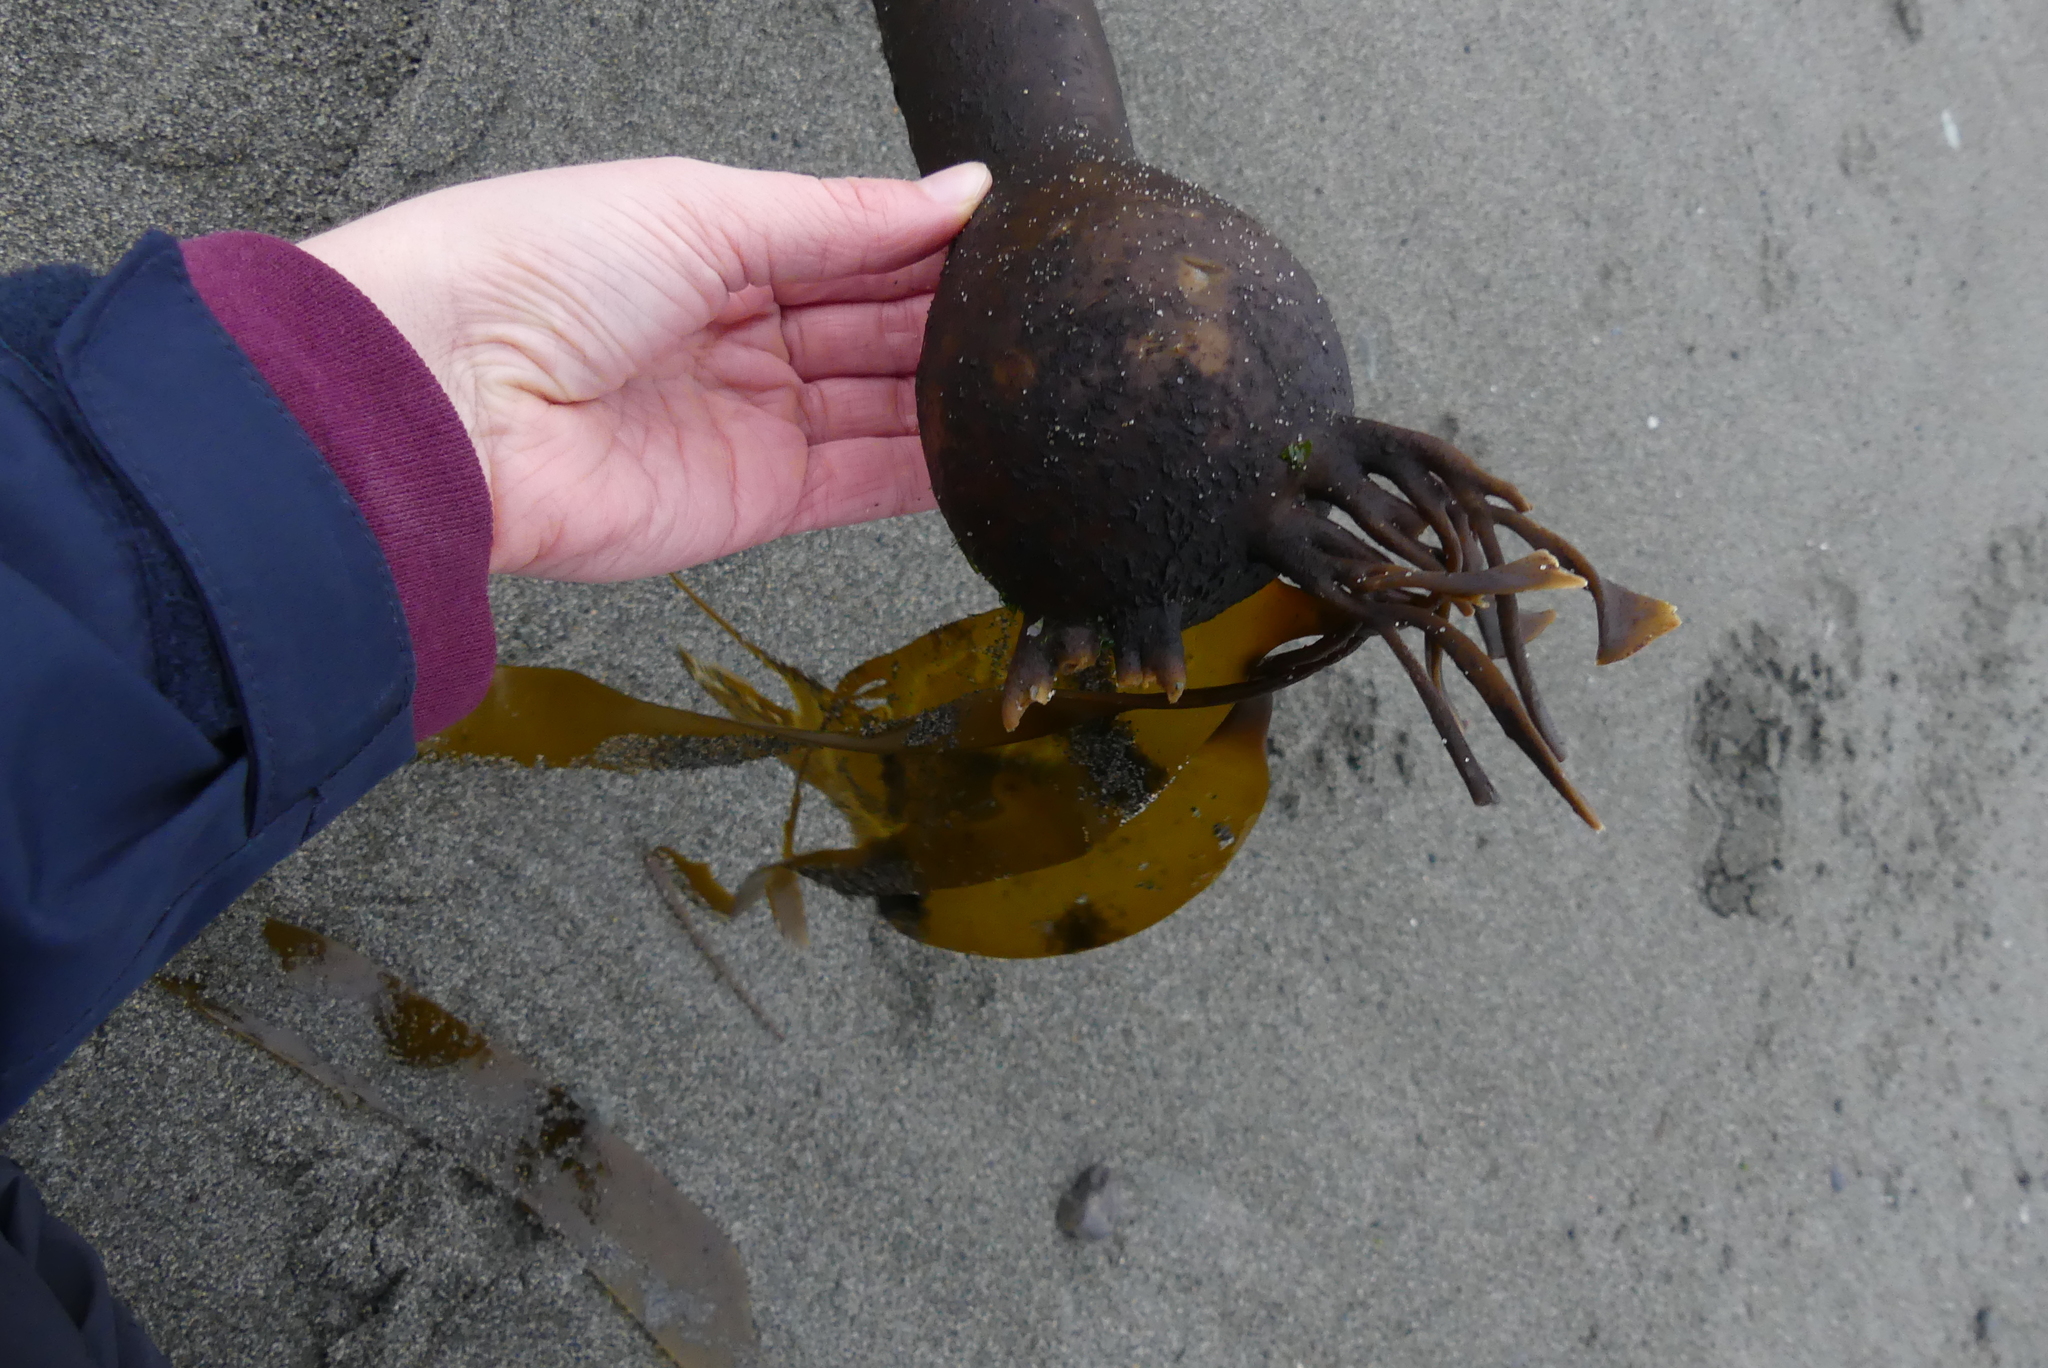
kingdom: Chromista
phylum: Ochrophyta
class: Phaeophyceae
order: Laminariales
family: Laminariaceae
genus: Nereocystis
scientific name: Nereocystis luetkeana
